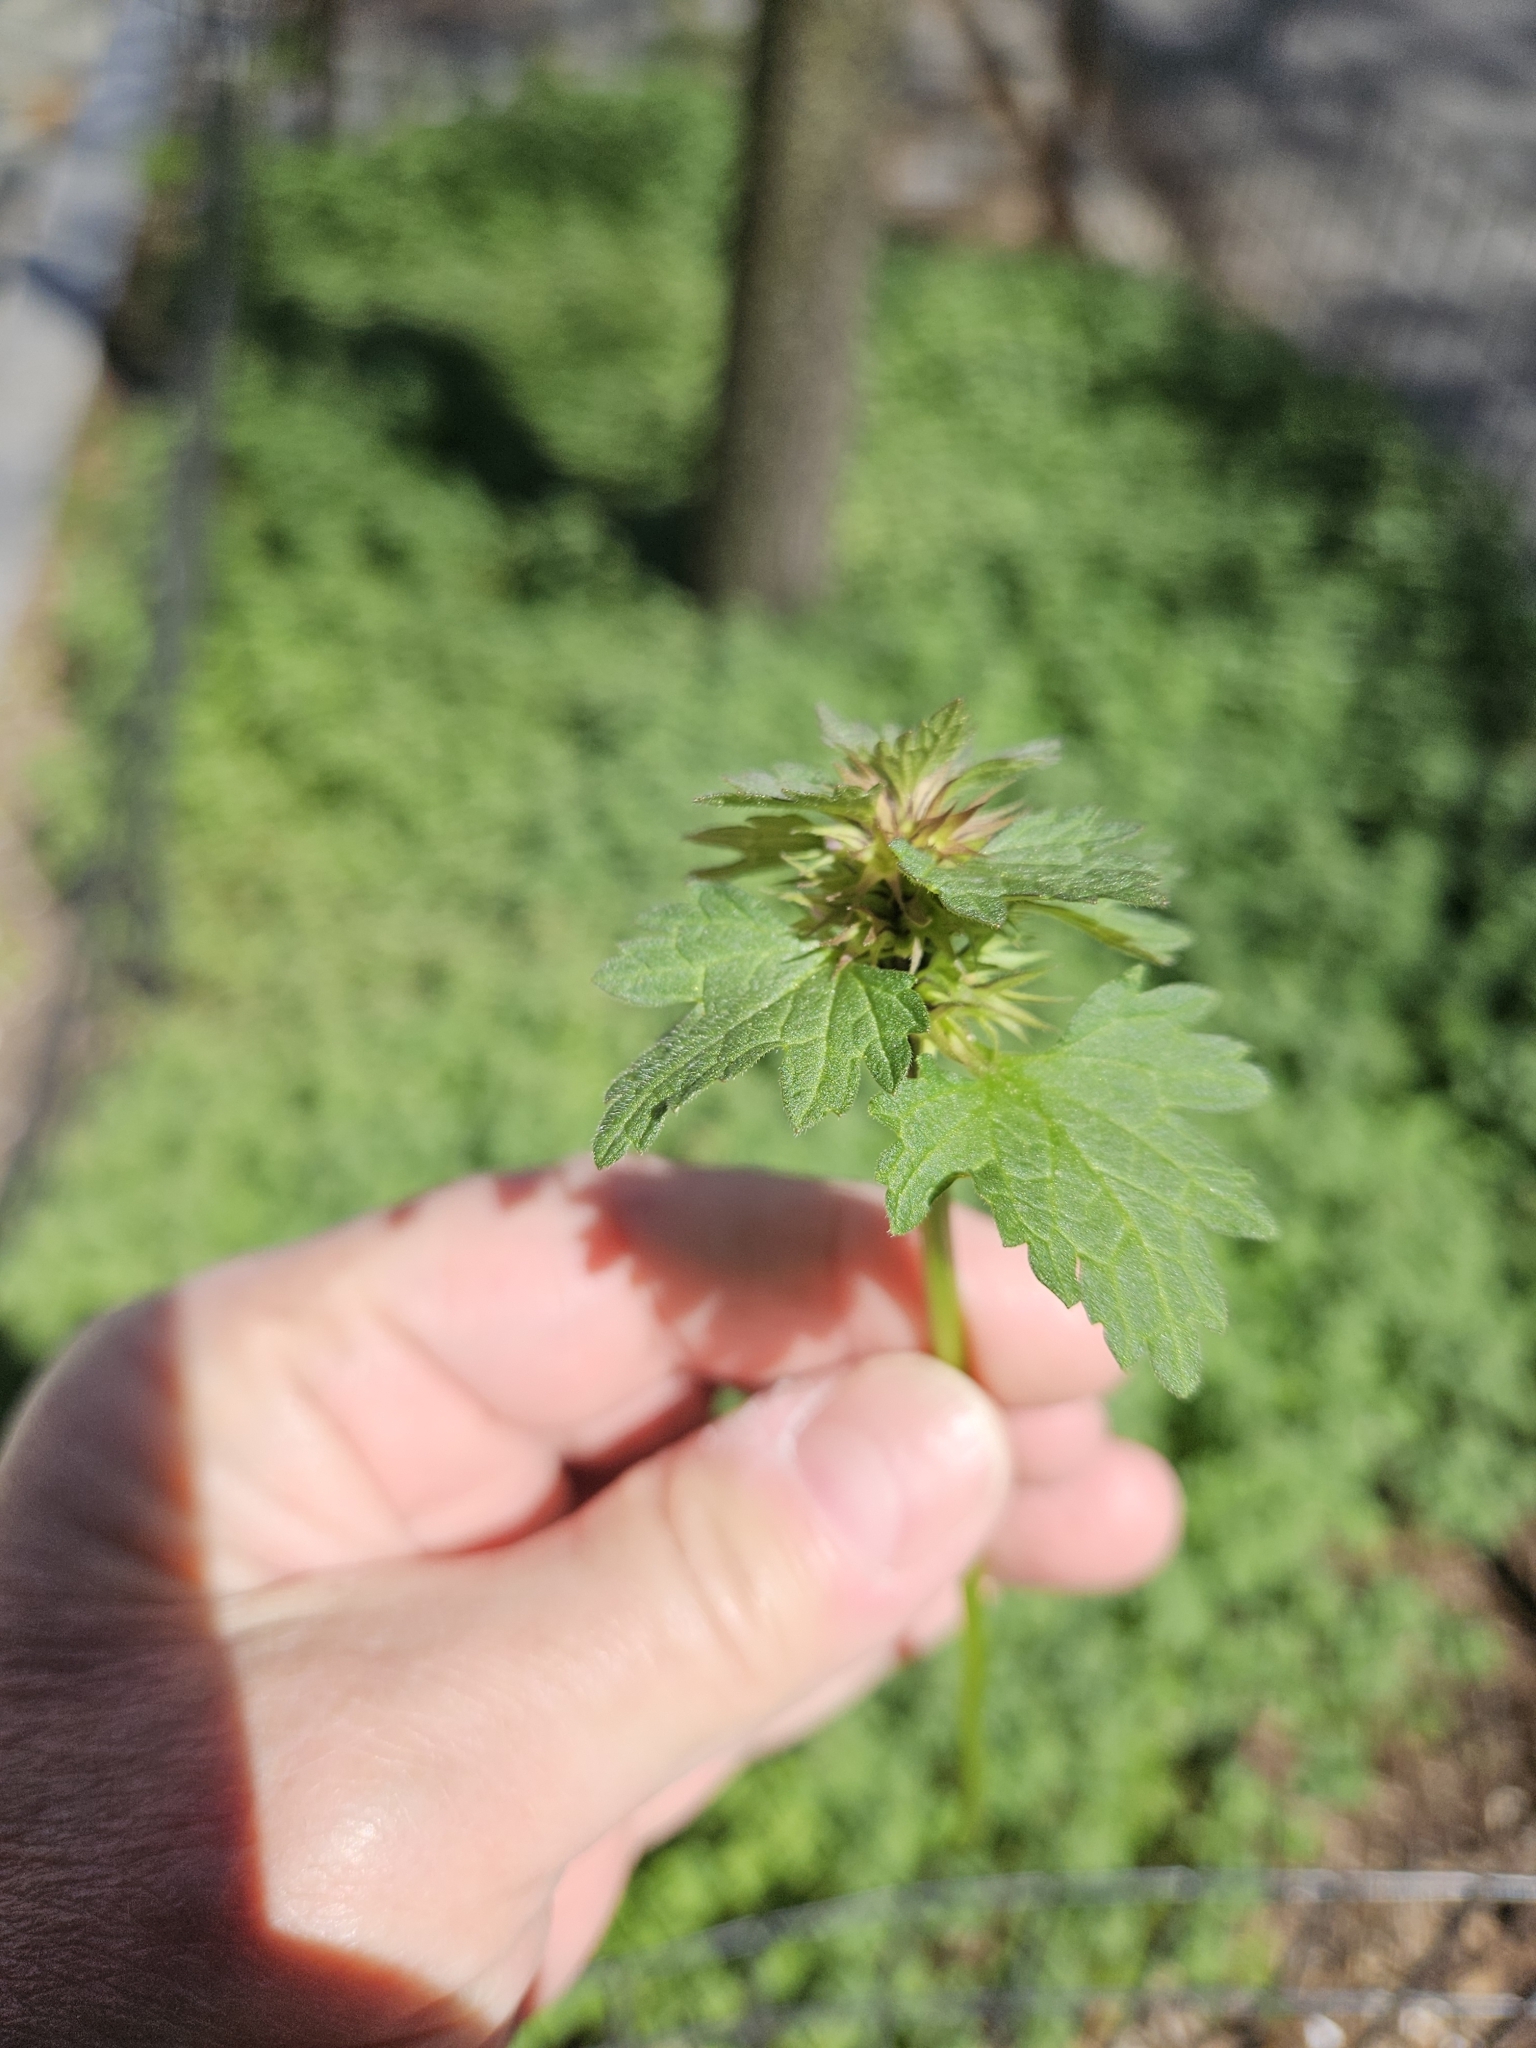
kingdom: Plantae
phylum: Tracheophyta
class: Magnoliopsida
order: Lamiales
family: Lamiaceae
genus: Lamium
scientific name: Lamium purpureum
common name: Red dead-nettle
